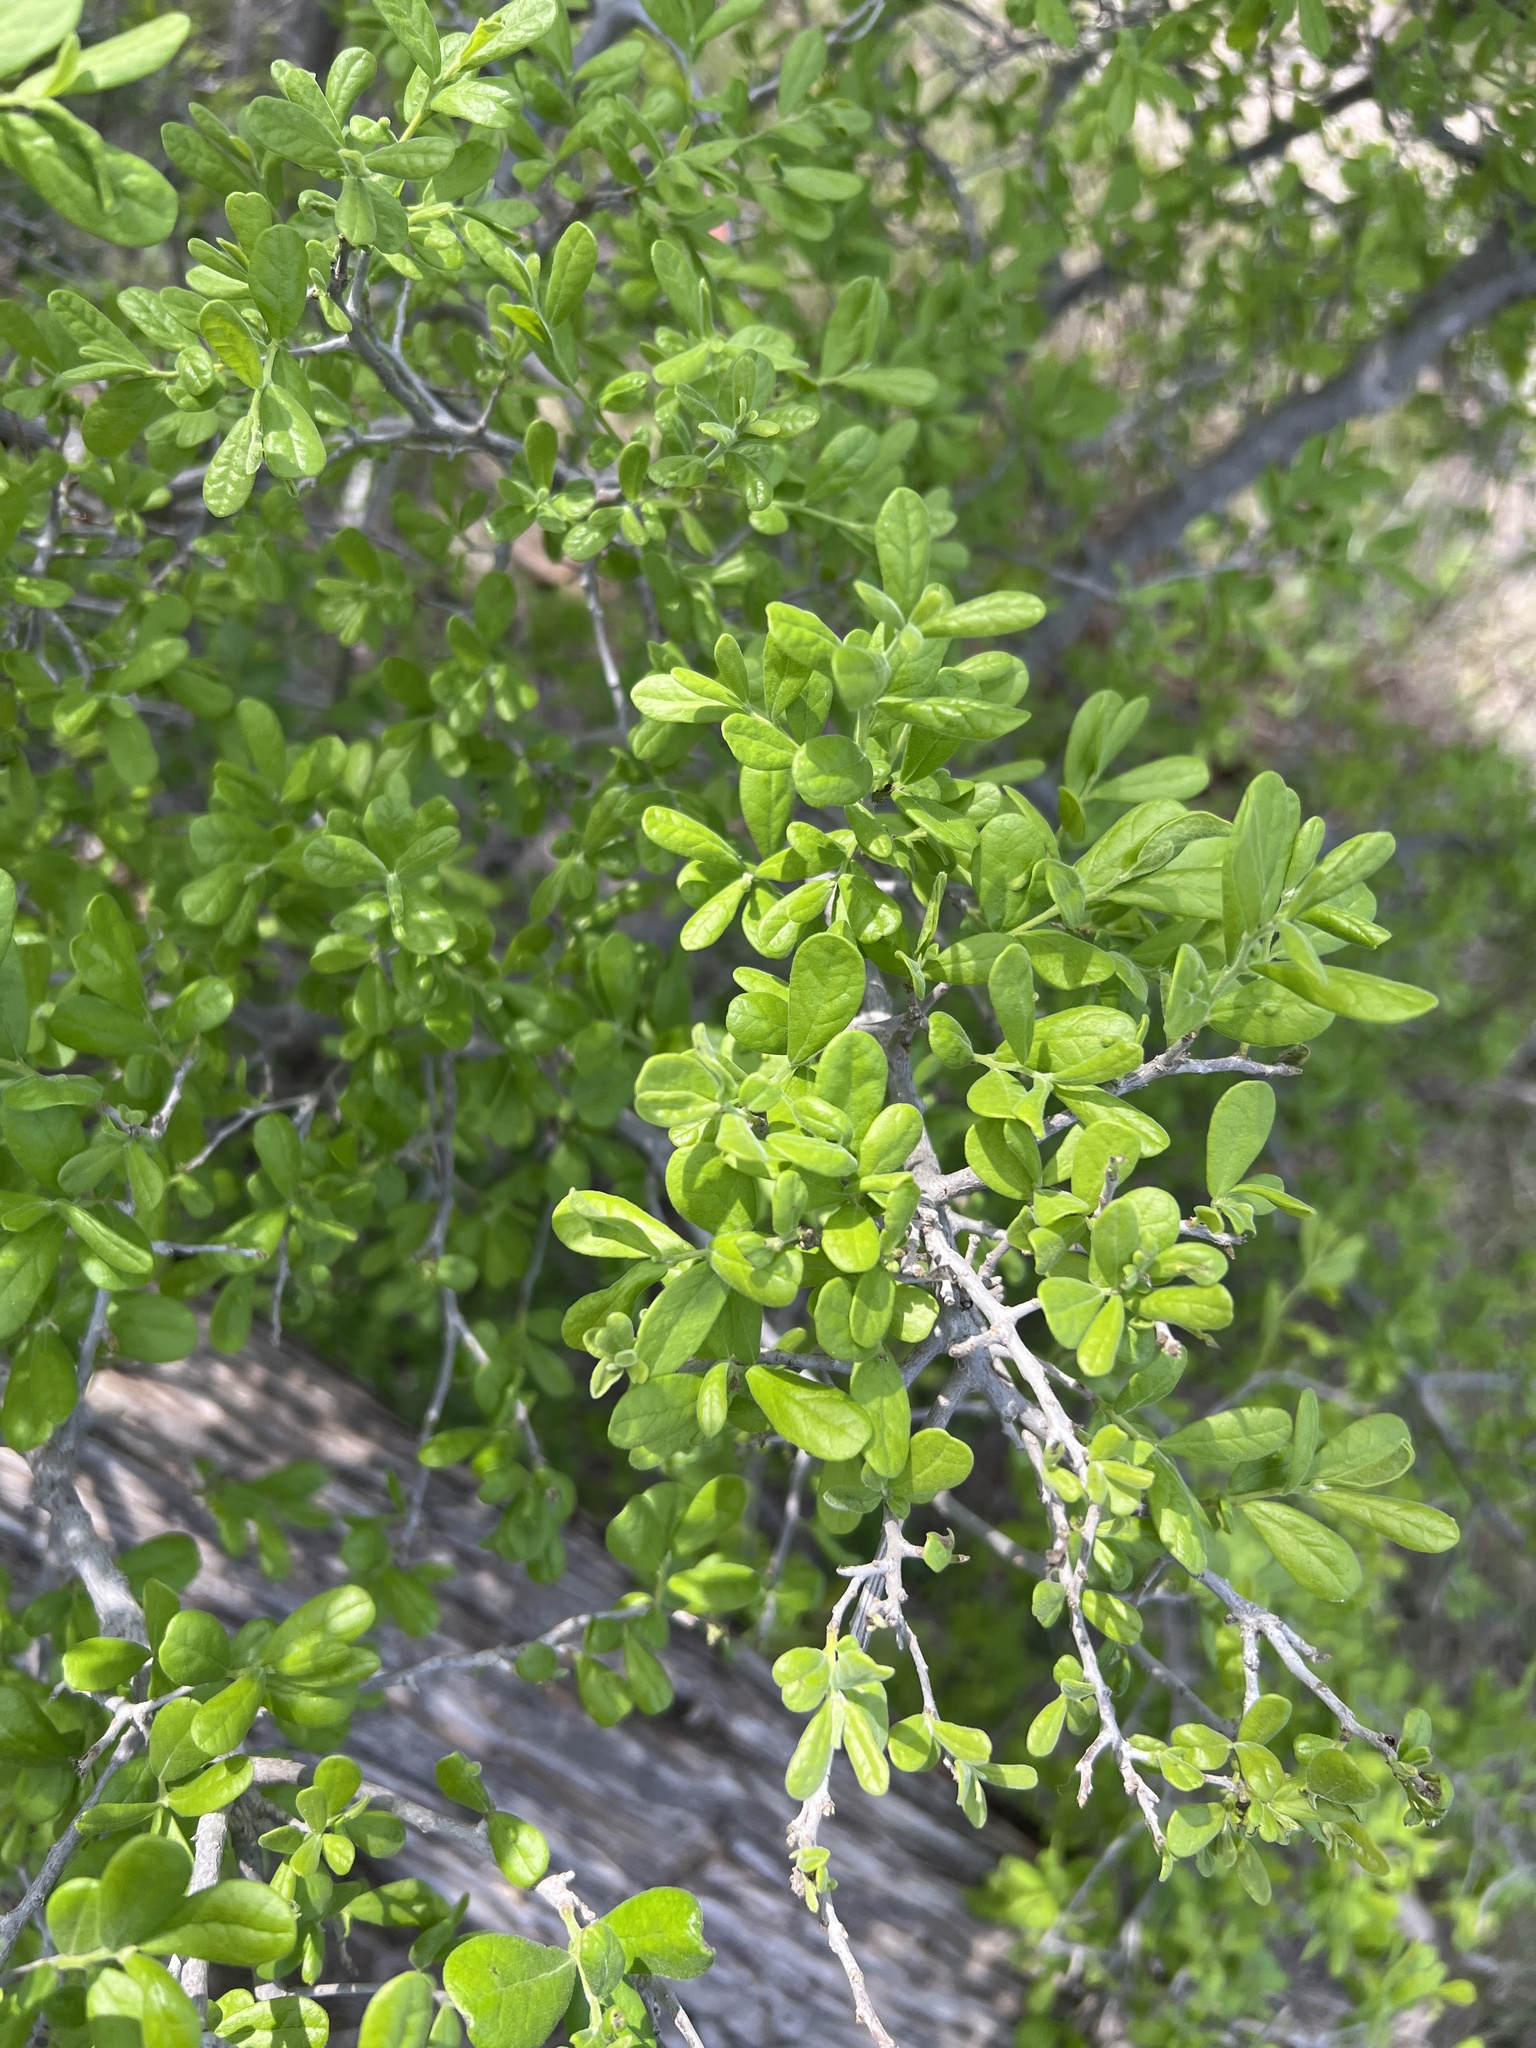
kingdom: Plantae
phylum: Tracheophyta
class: Magnoliopsida
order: Ericales
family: Ebenaceae
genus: Diospyros
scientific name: Diospyros texana
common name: Texas persimmon
